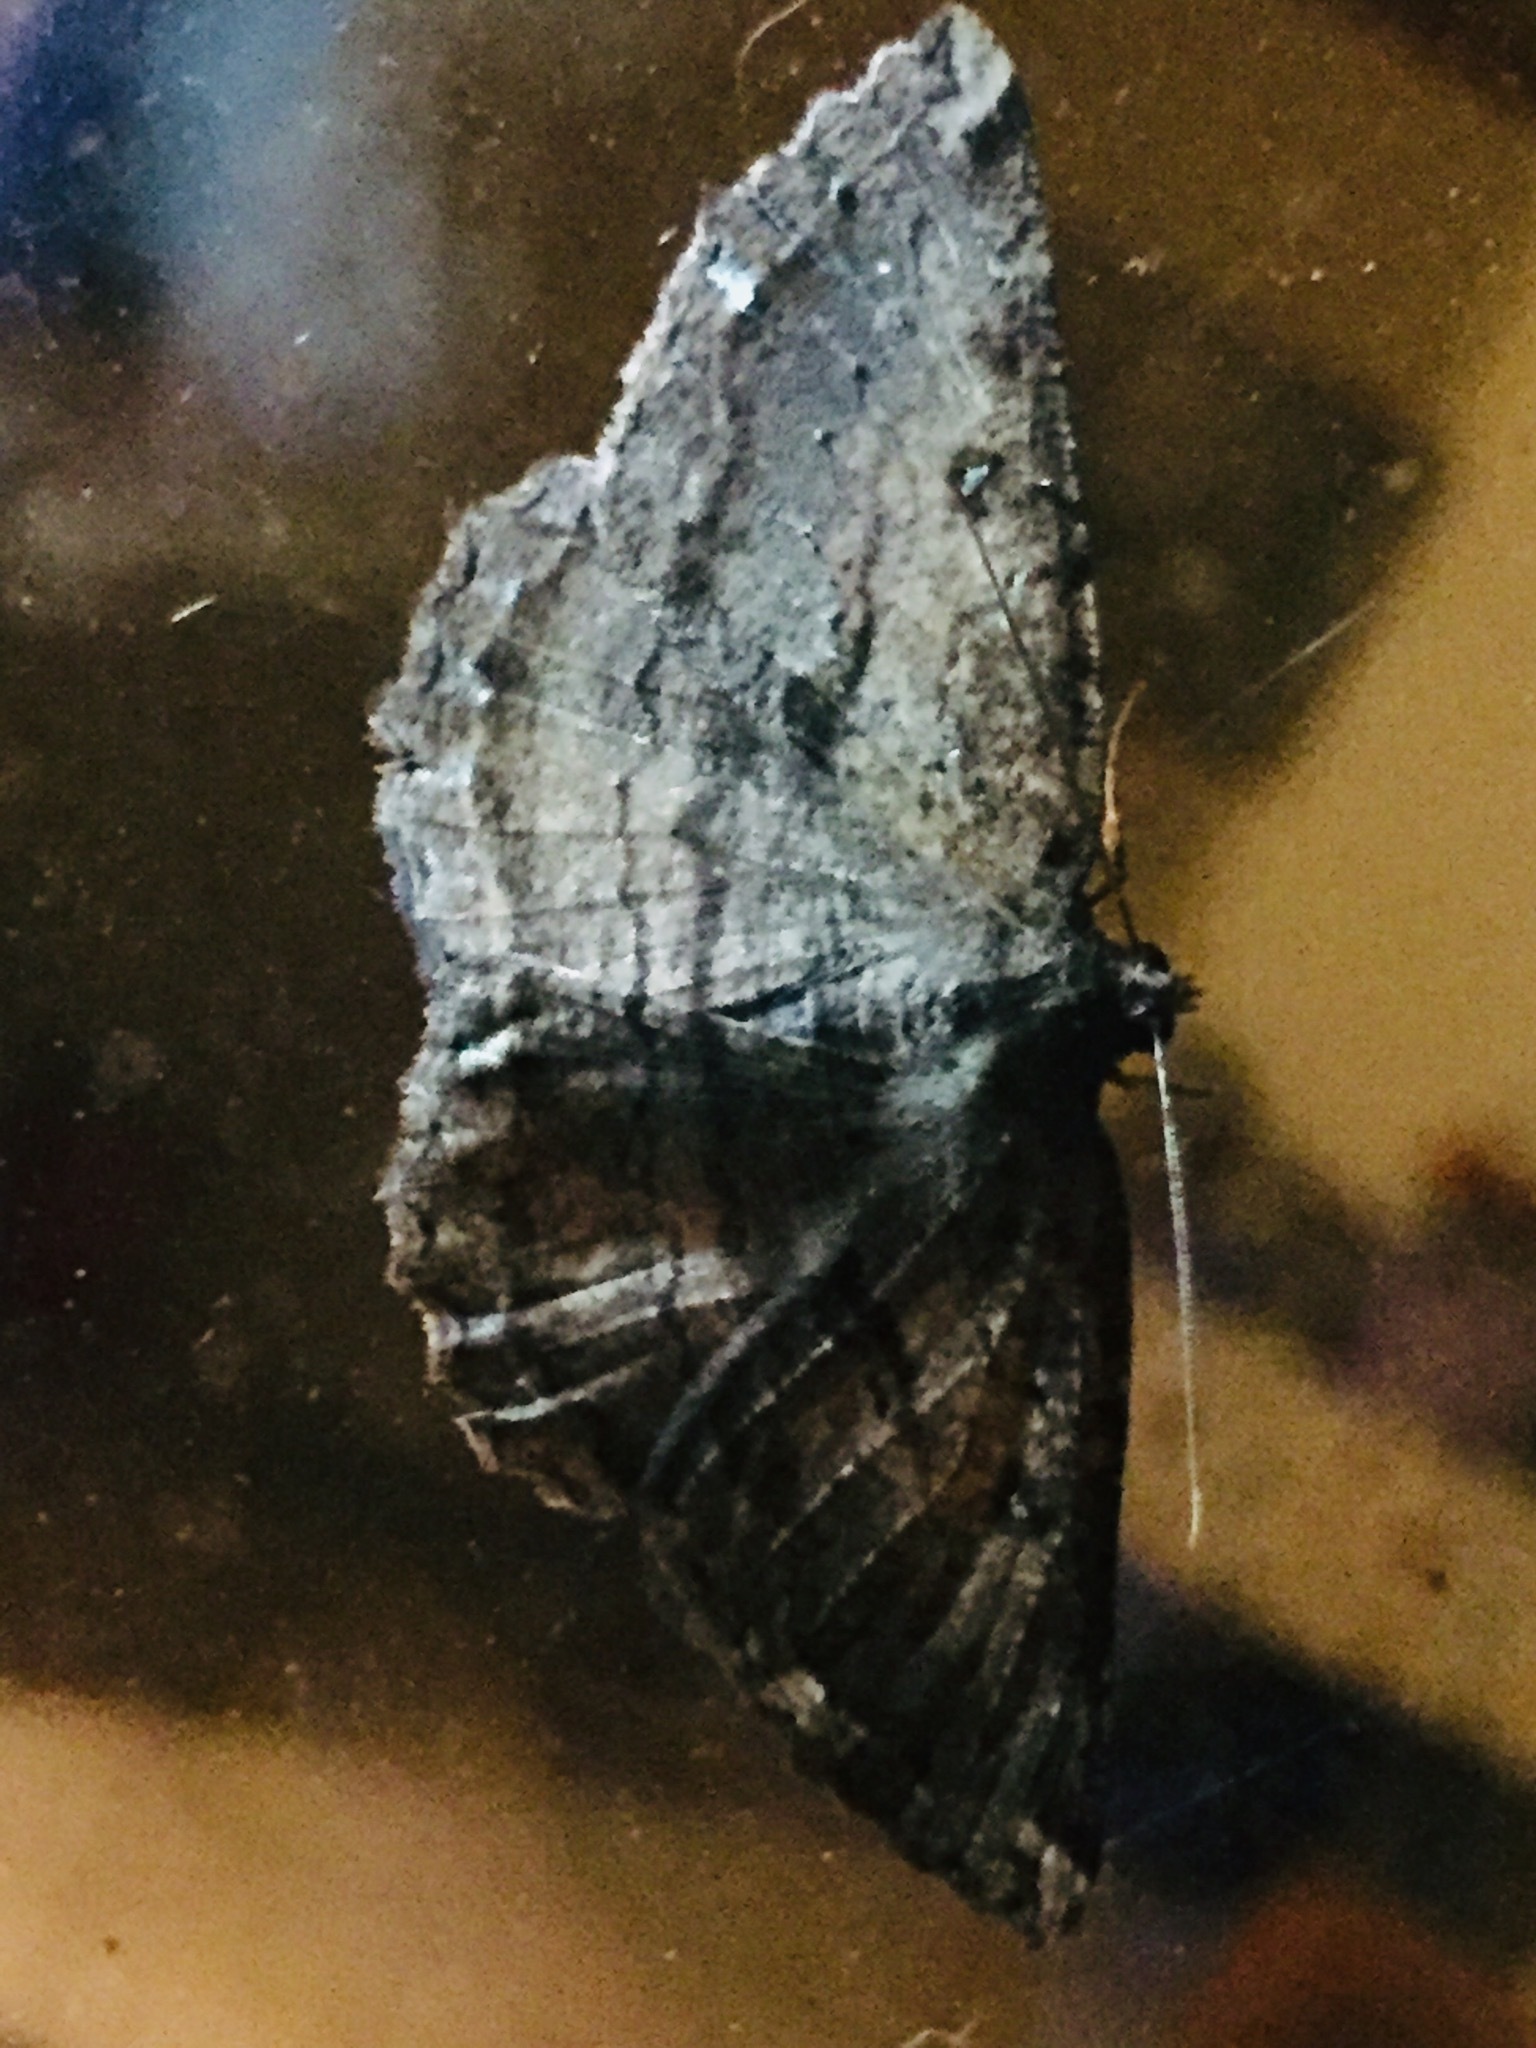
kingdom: Animalia
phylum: Arthropoda
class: Insecta
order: Lepidoptera
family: Geometridae
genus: Gellonia
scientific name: Gellonia dejectaria
